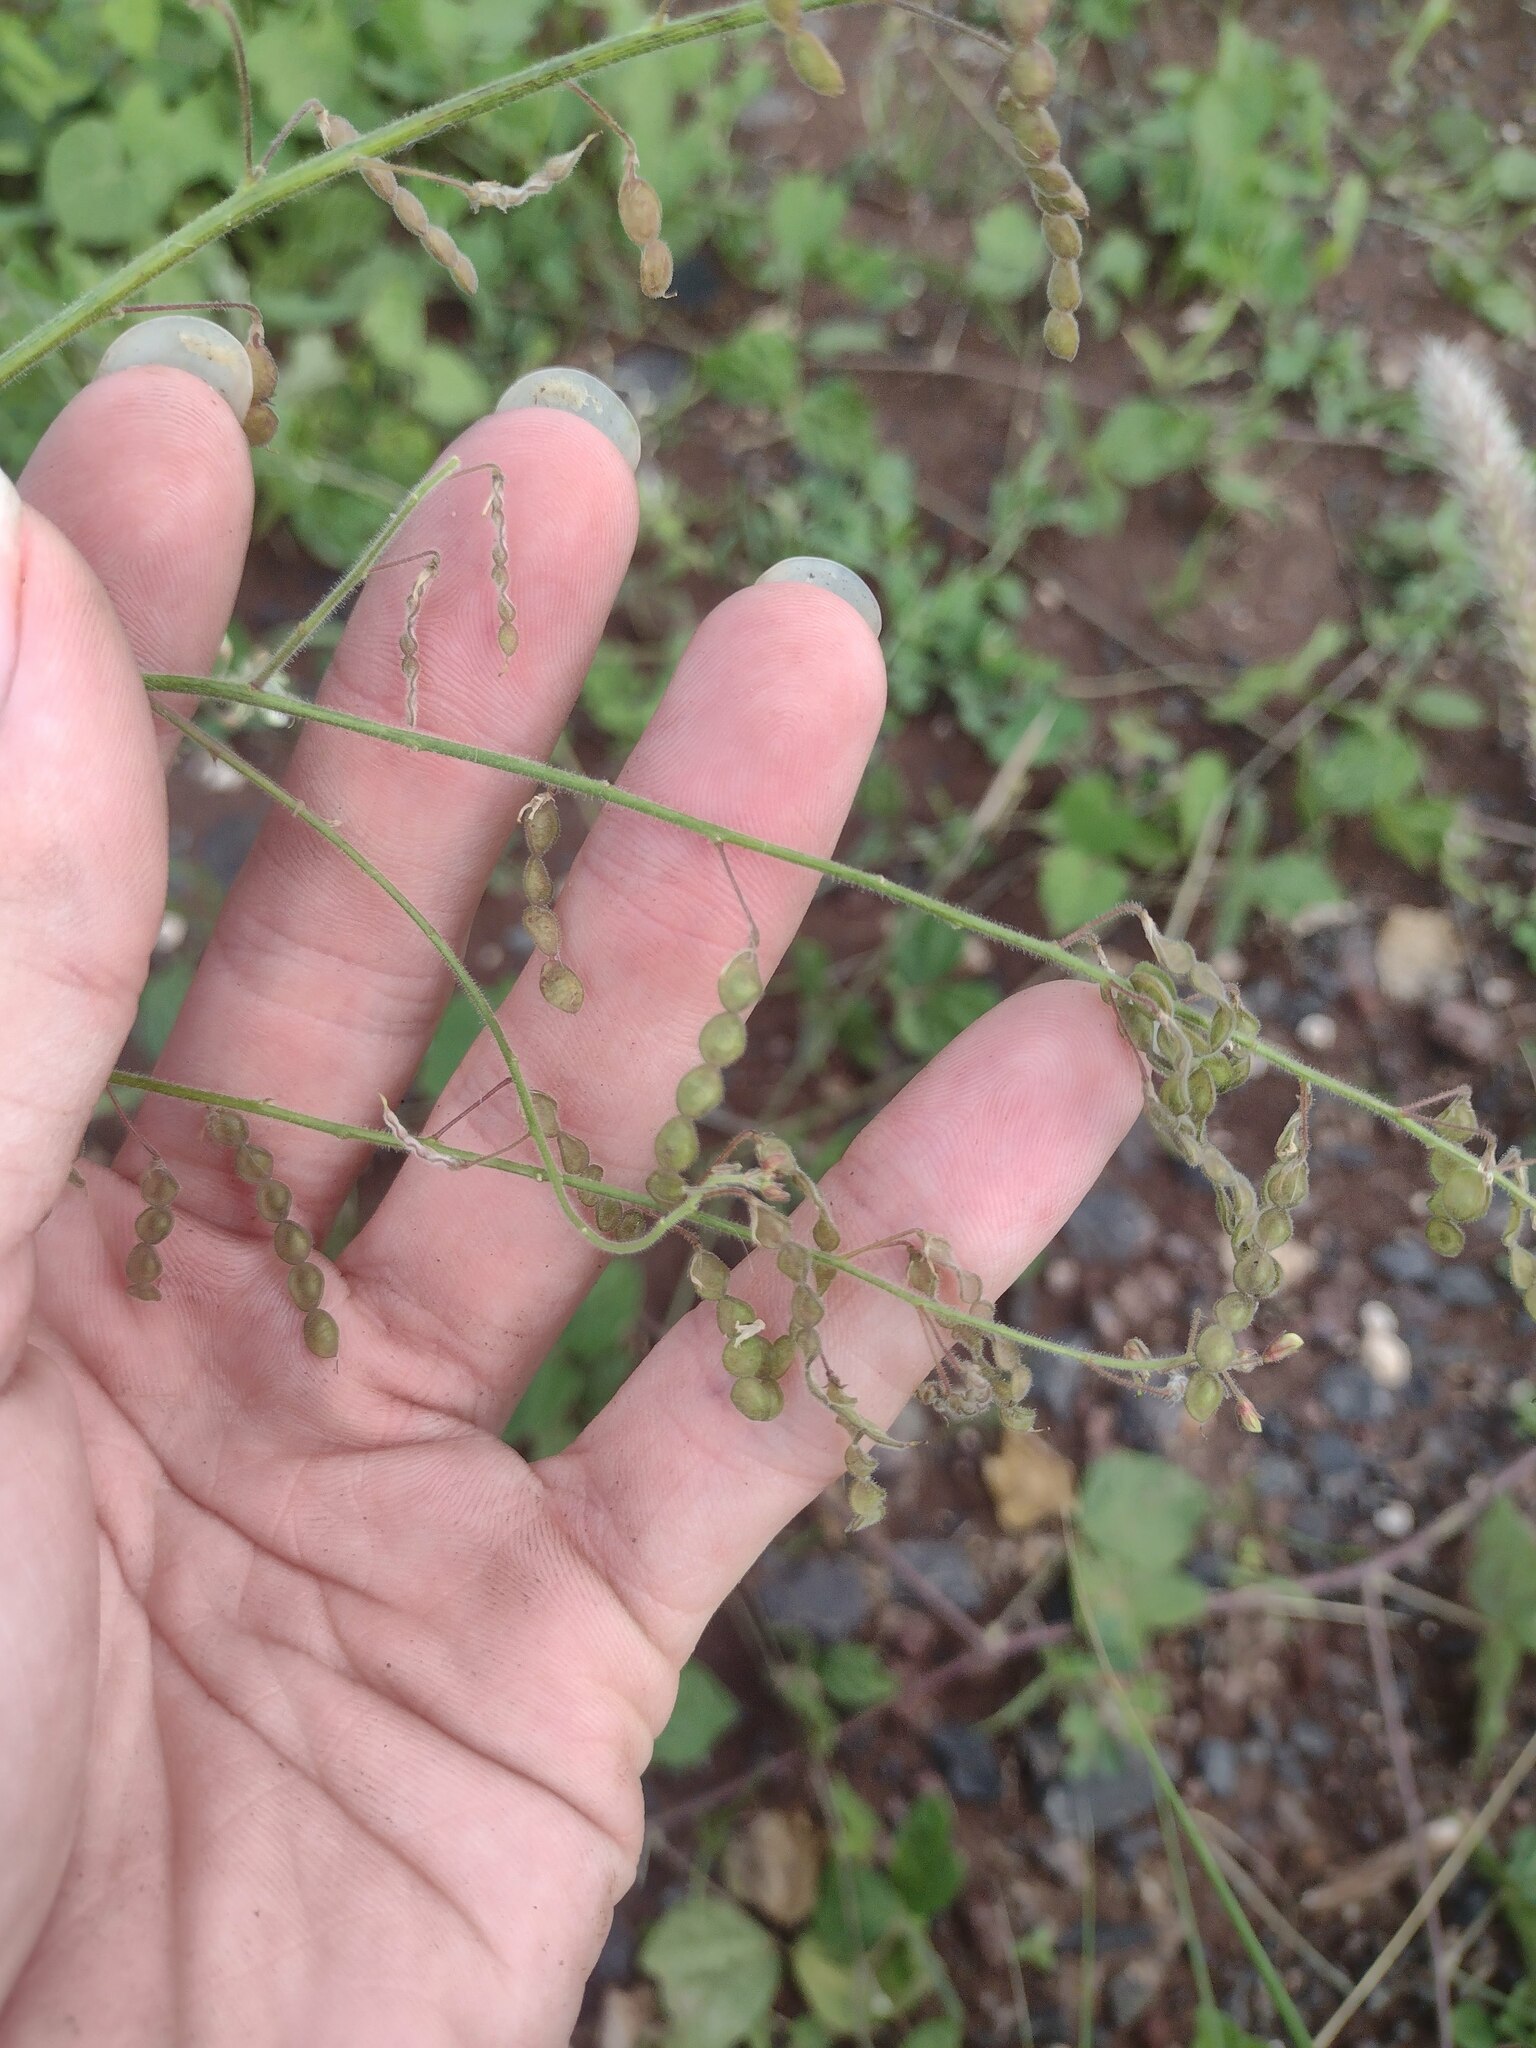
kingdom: Plantae
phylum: Tracheophyta
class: Magnoliopsida
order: Fabales
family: Fabaceae
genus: Desmodium
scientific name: Desmodium tortuosum
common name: Dixie ticktrefoil
